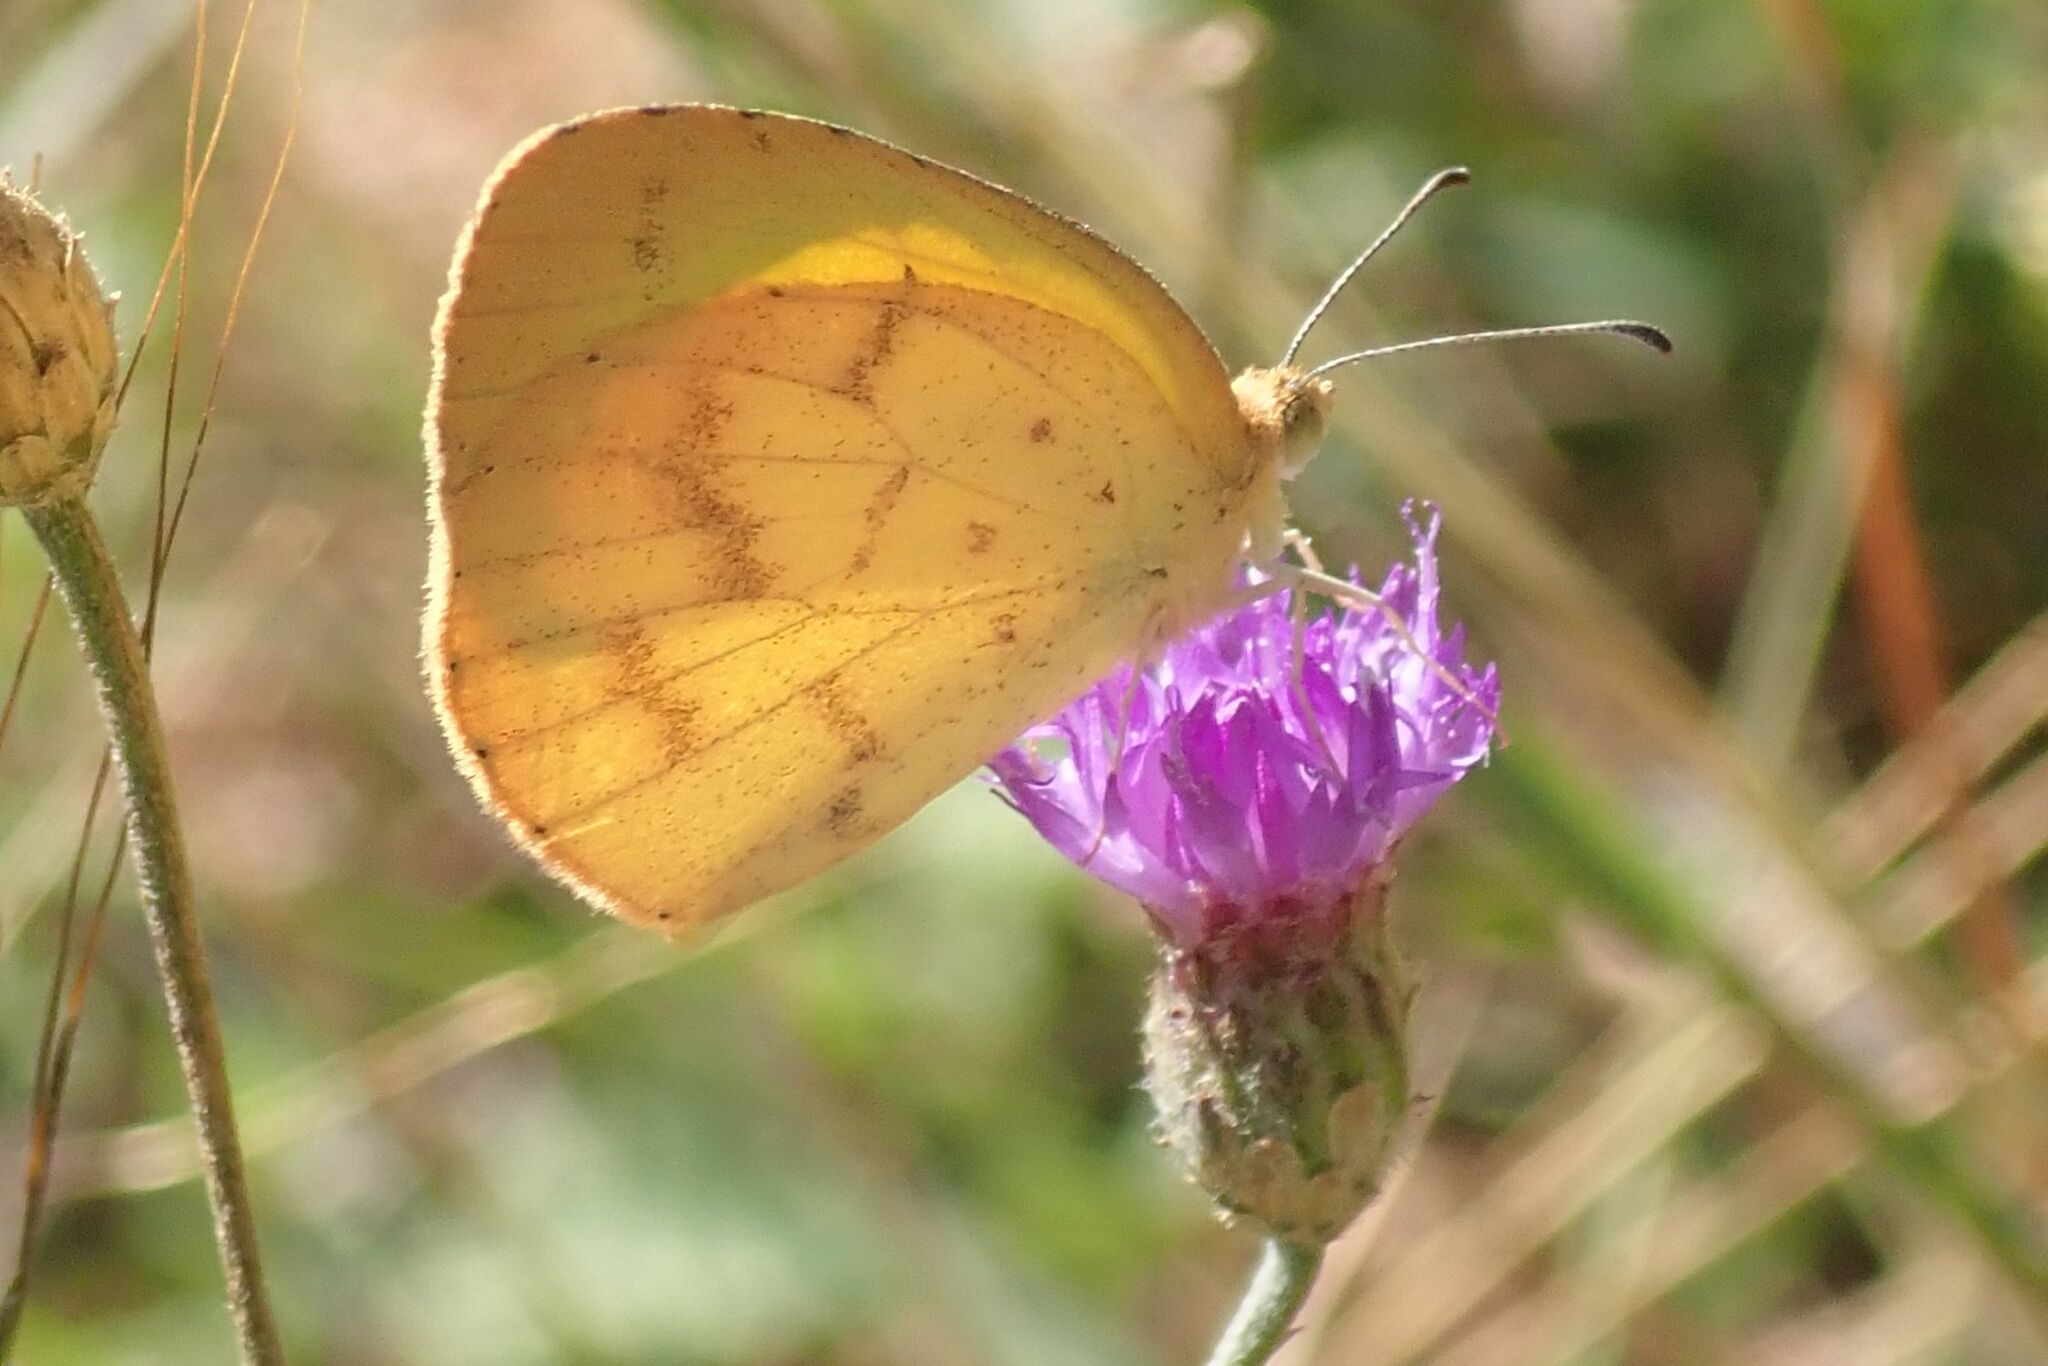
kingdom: Animalia
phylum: Arthropoda
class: Insecta
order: Lepidoptera
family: Pieridae
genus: Eurema
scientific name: Eurema brigitta
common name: Small grass yellow
